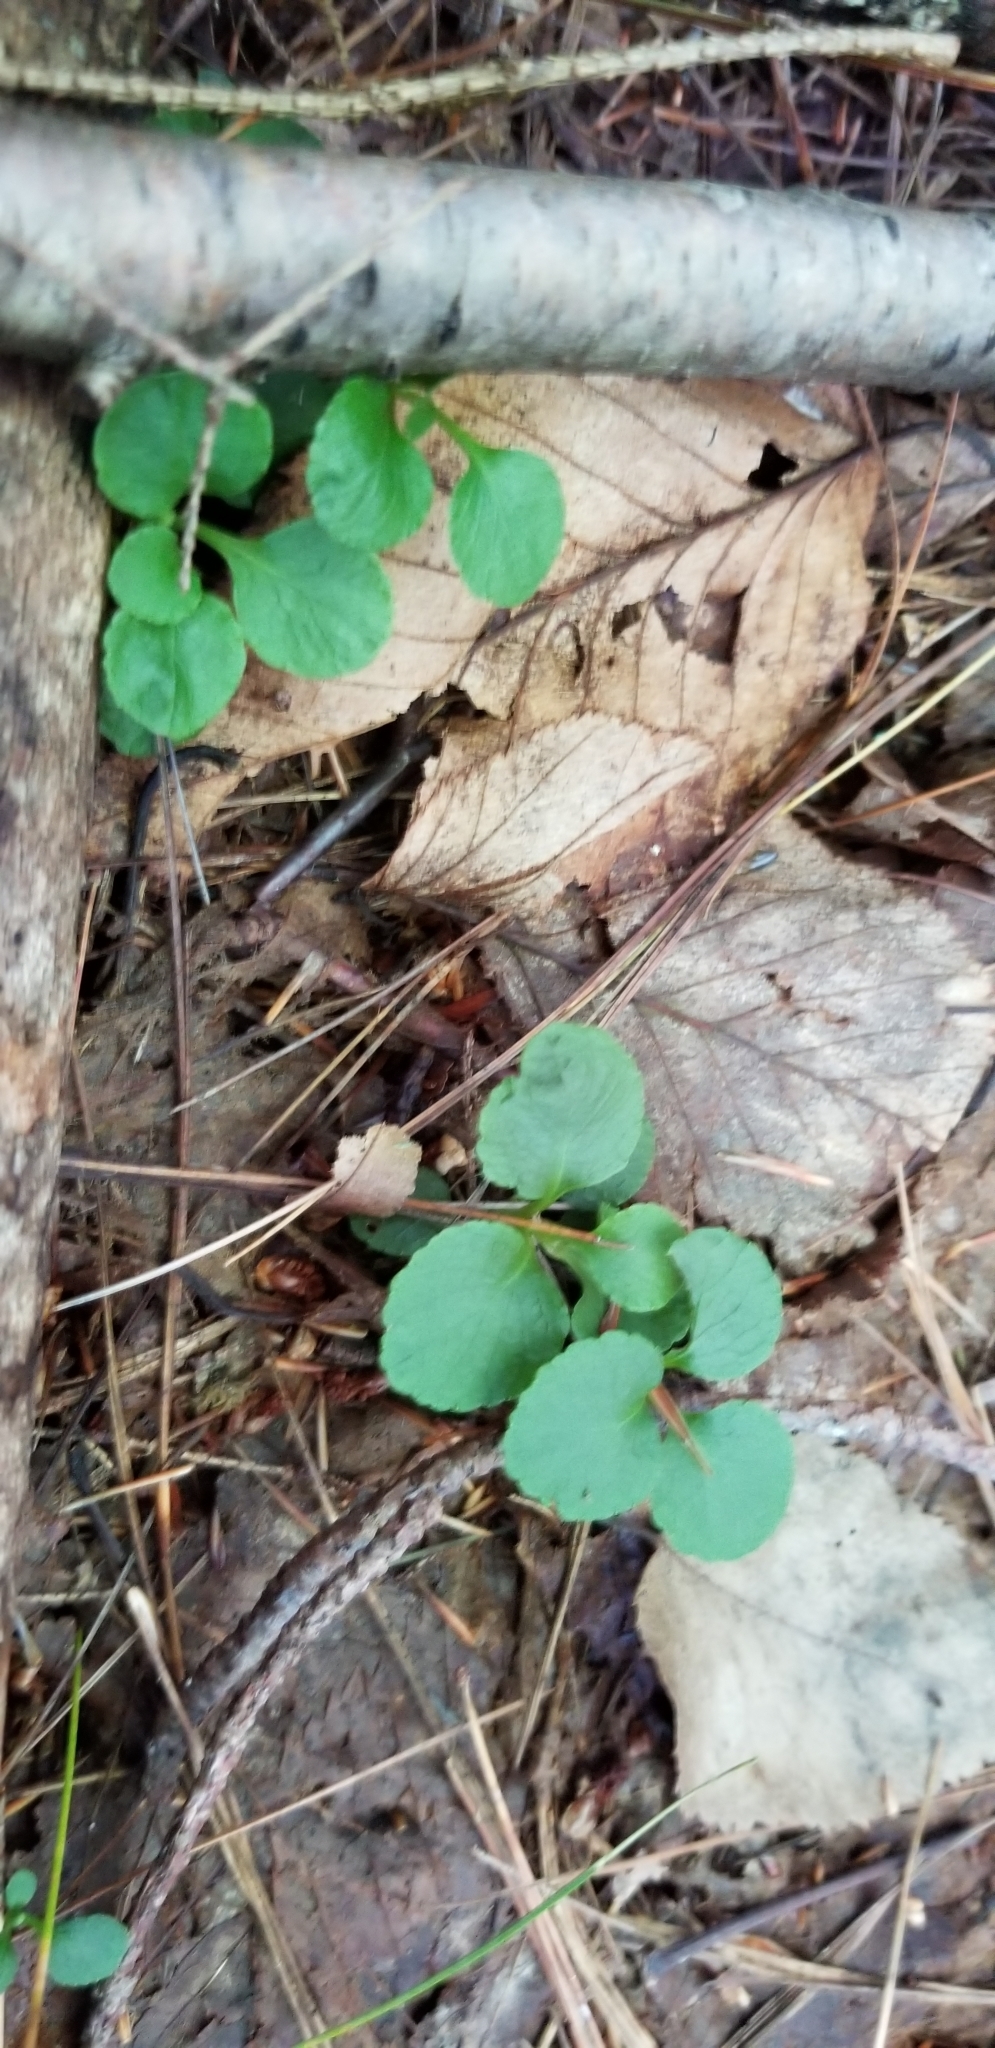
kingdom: Plantae
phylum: Tracheophyta
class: Magnoliopsida
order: Ericales
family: Ericaceae
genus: Moneses
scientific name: Moneses uniflora
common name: One-flowered wintergreen
